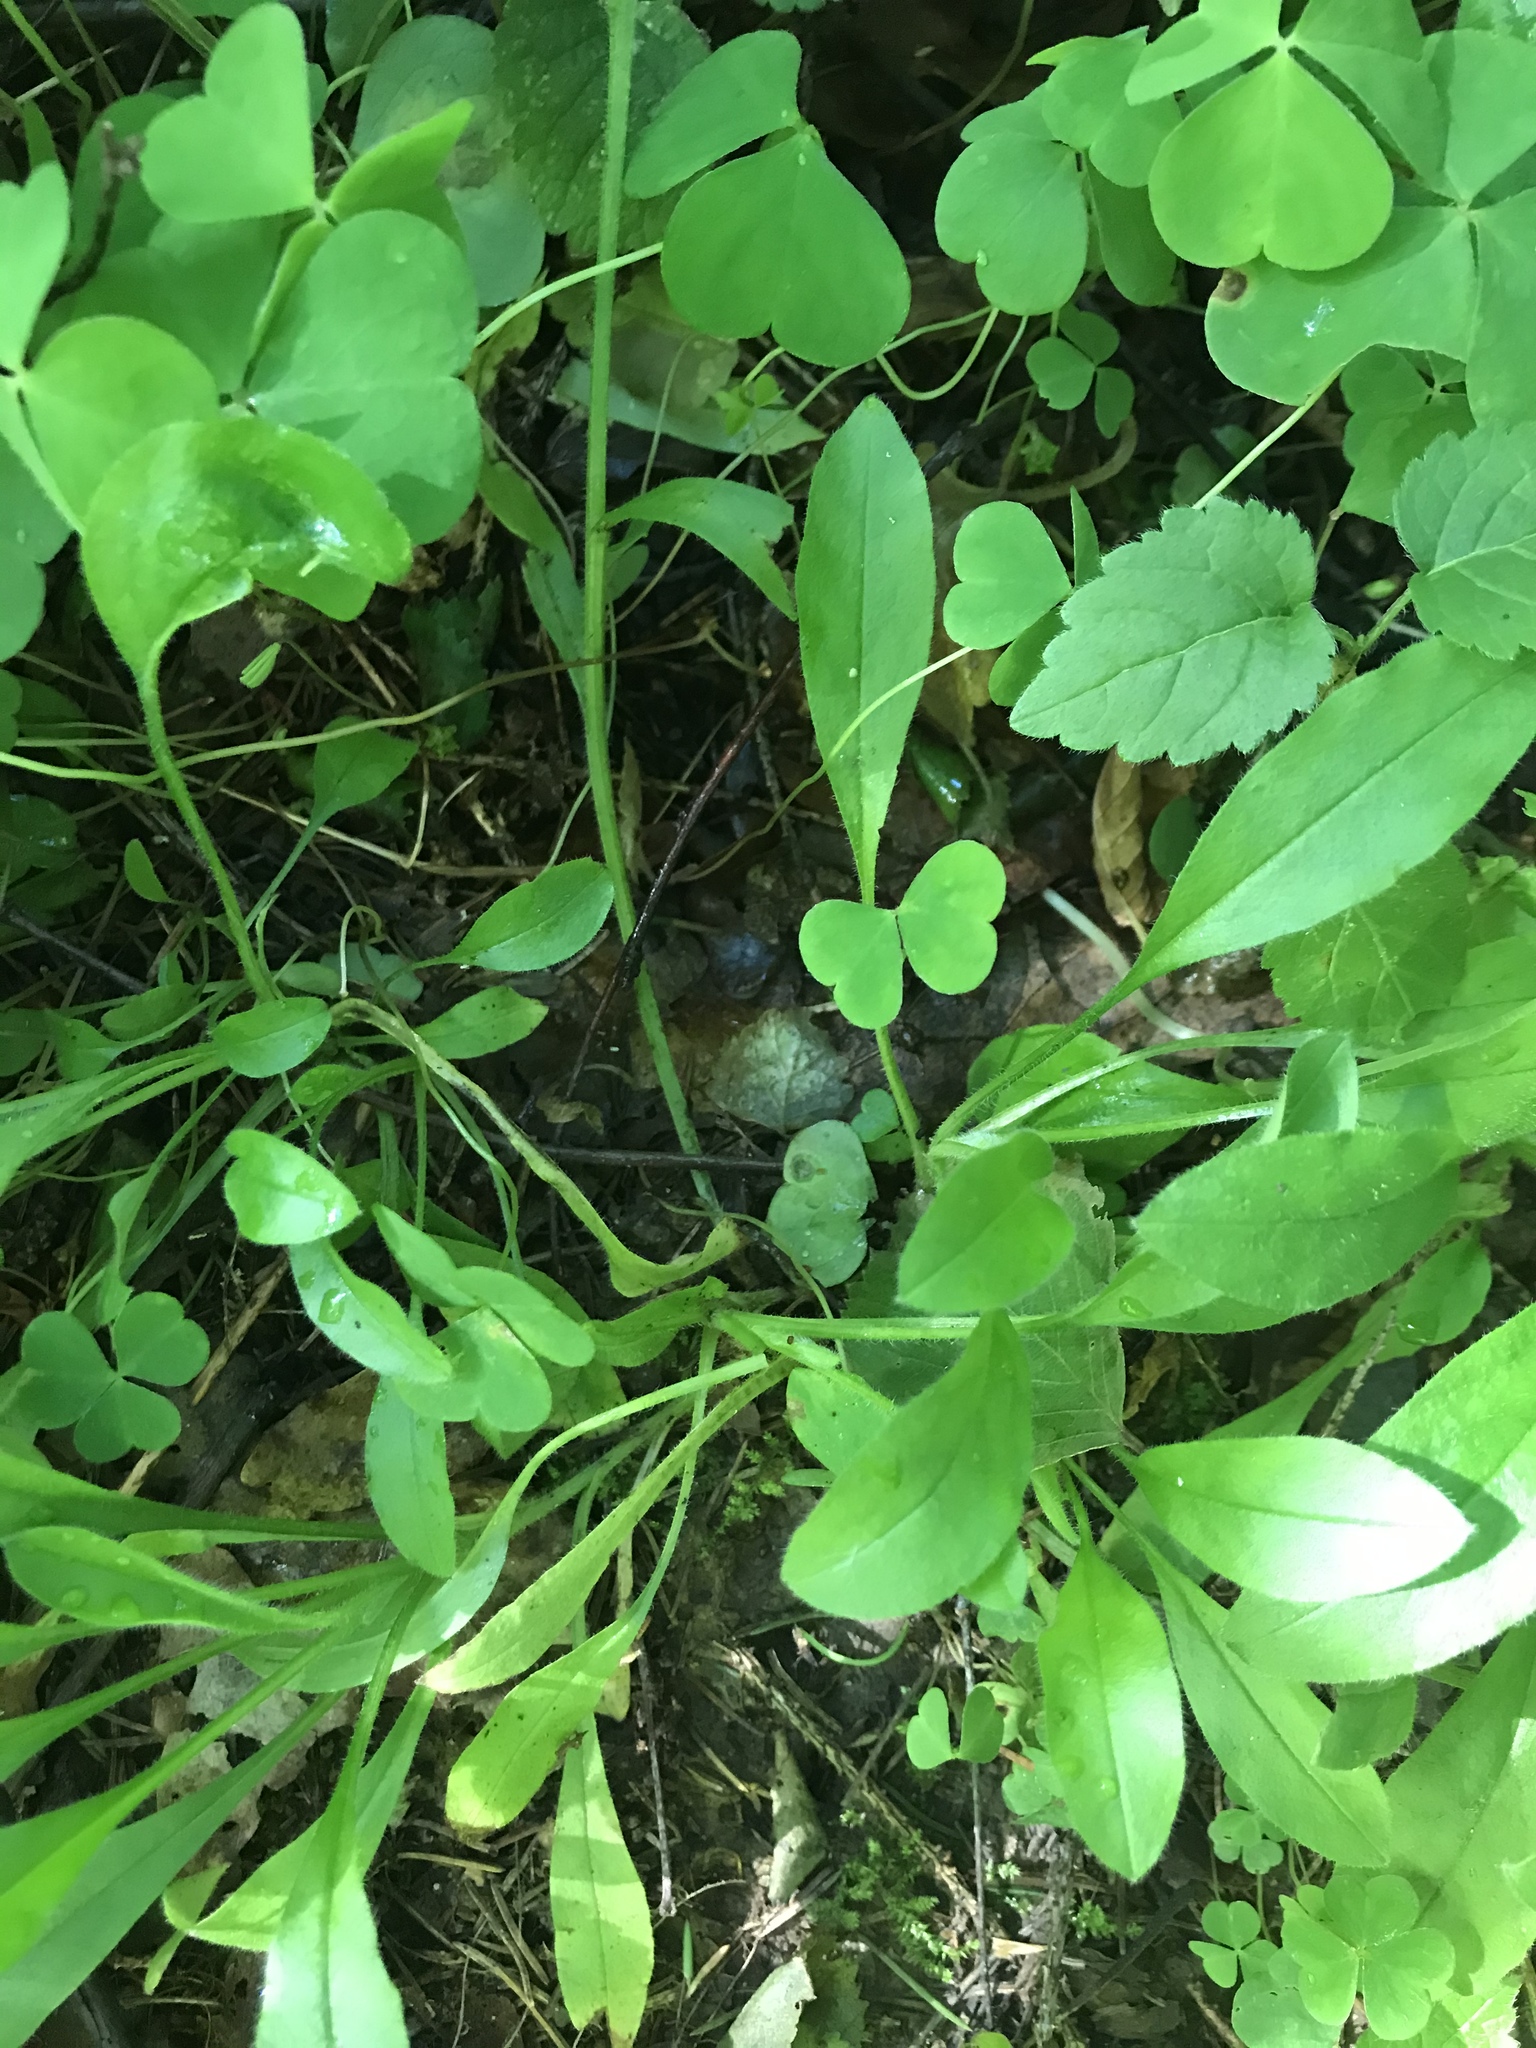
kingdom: Plantae
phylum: Tracheophyta
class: Magnoliopsida
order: Boraginales
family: Boraginaceae
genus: Myosotis
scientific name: Myosotis sylvatica
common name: Wood forget-me-not
